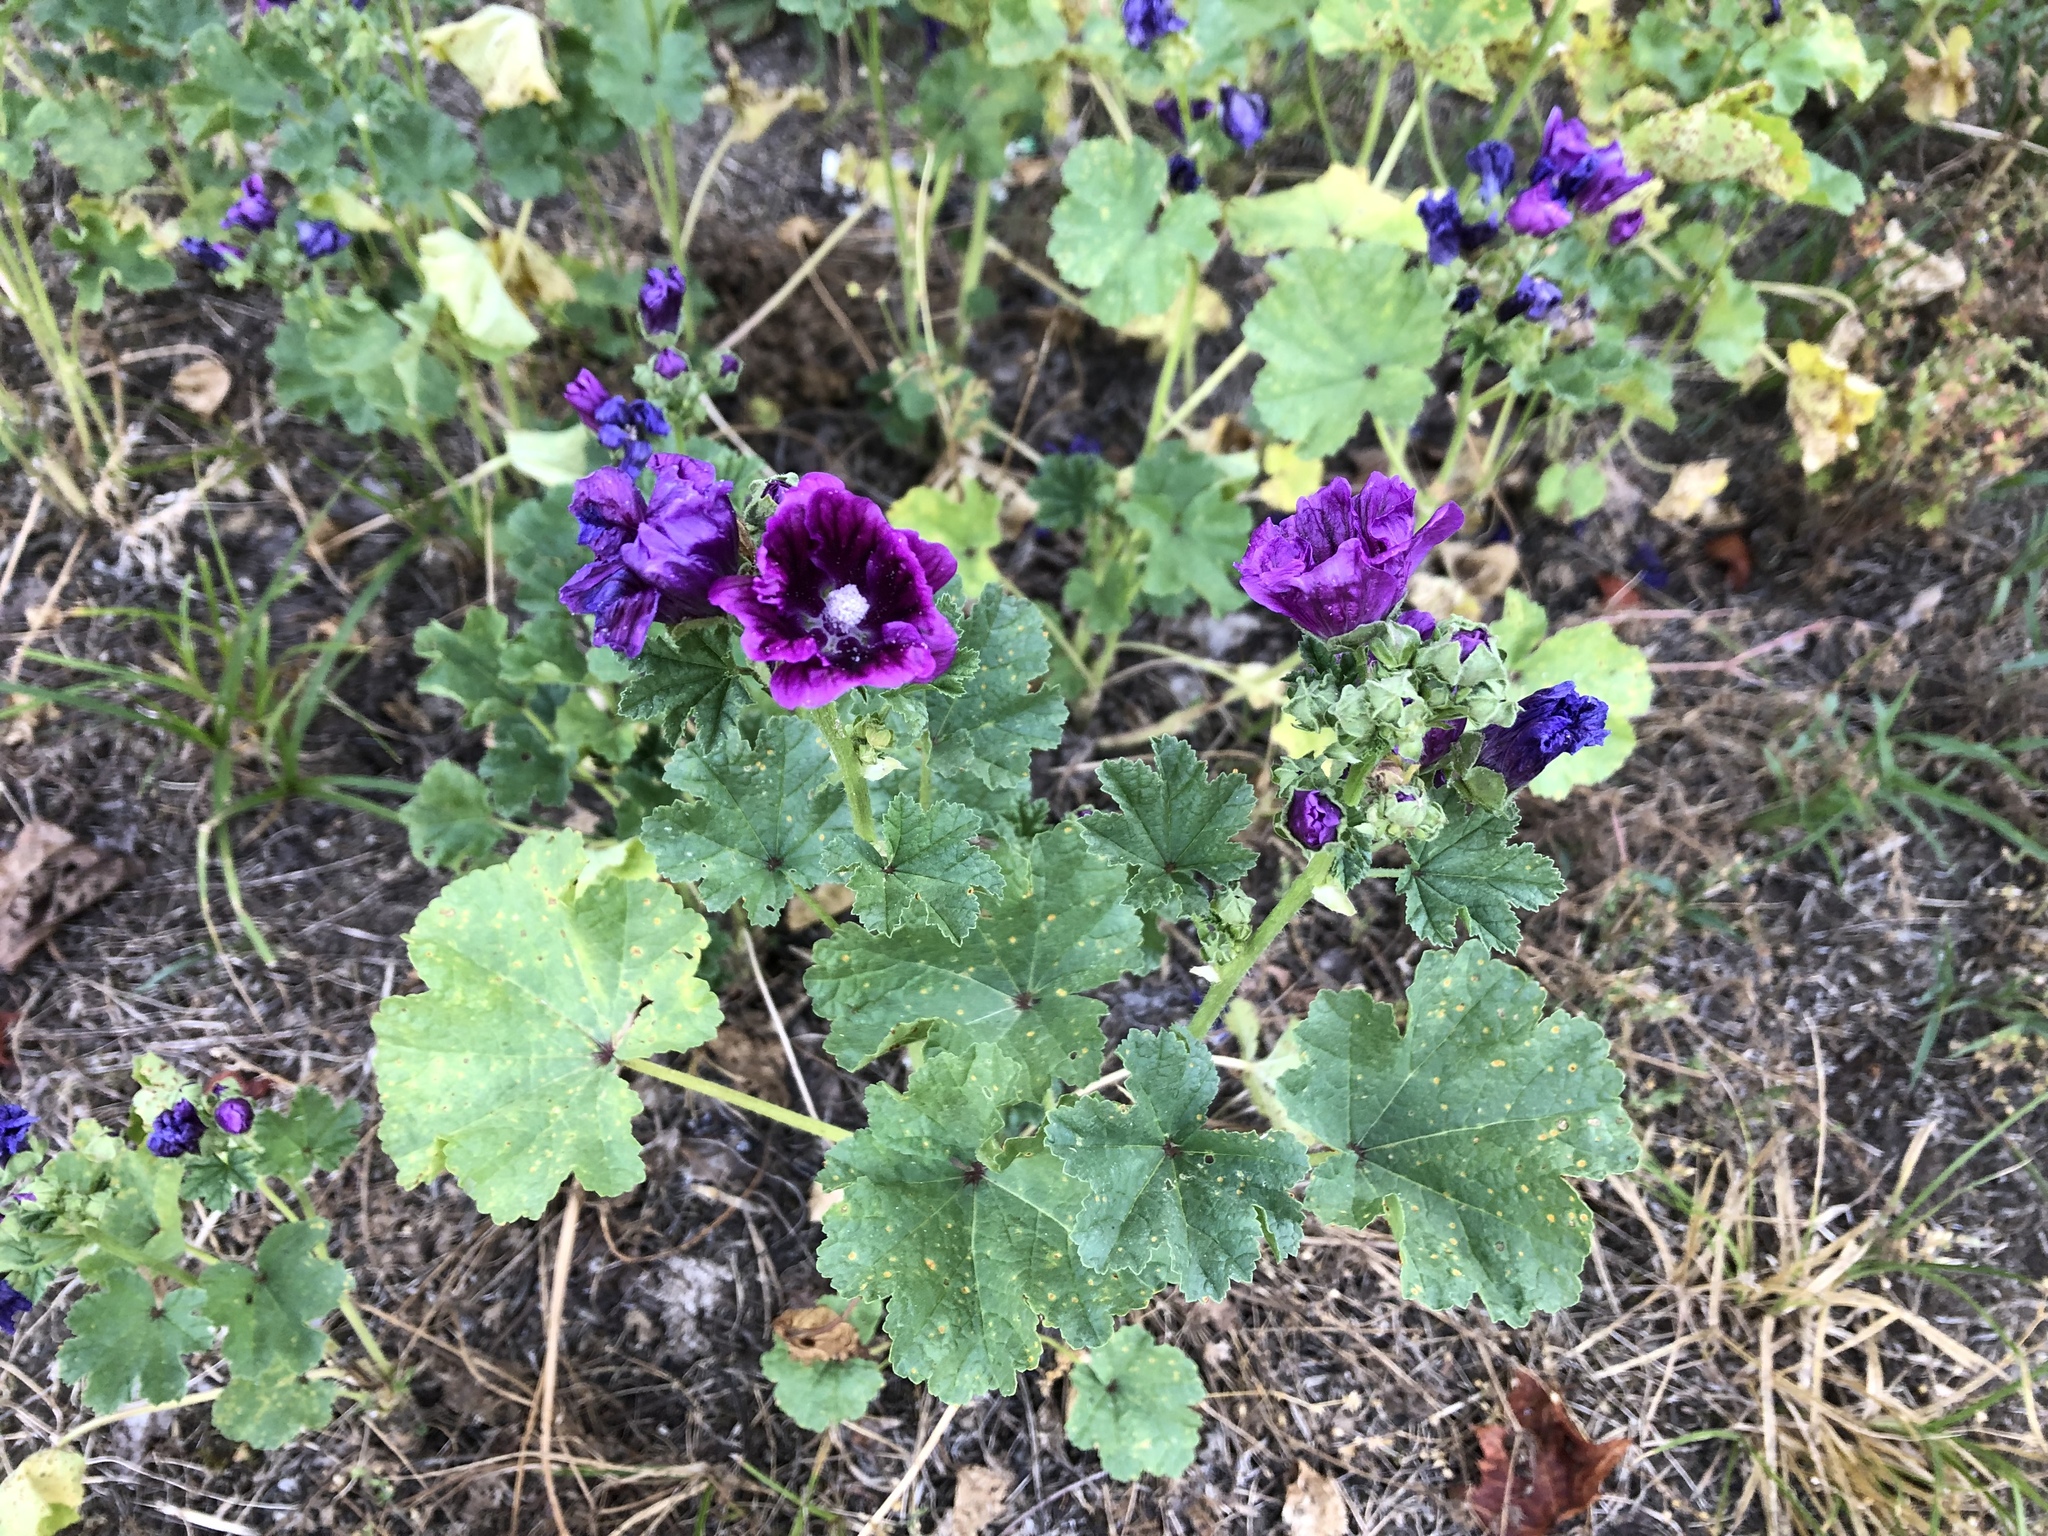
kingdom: Plantae
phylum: Tracheophyta
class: Magnoliopsida
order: Malvales
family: Malvaceae
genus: Malva
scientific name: Malva sylvestris
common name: Common mallow
